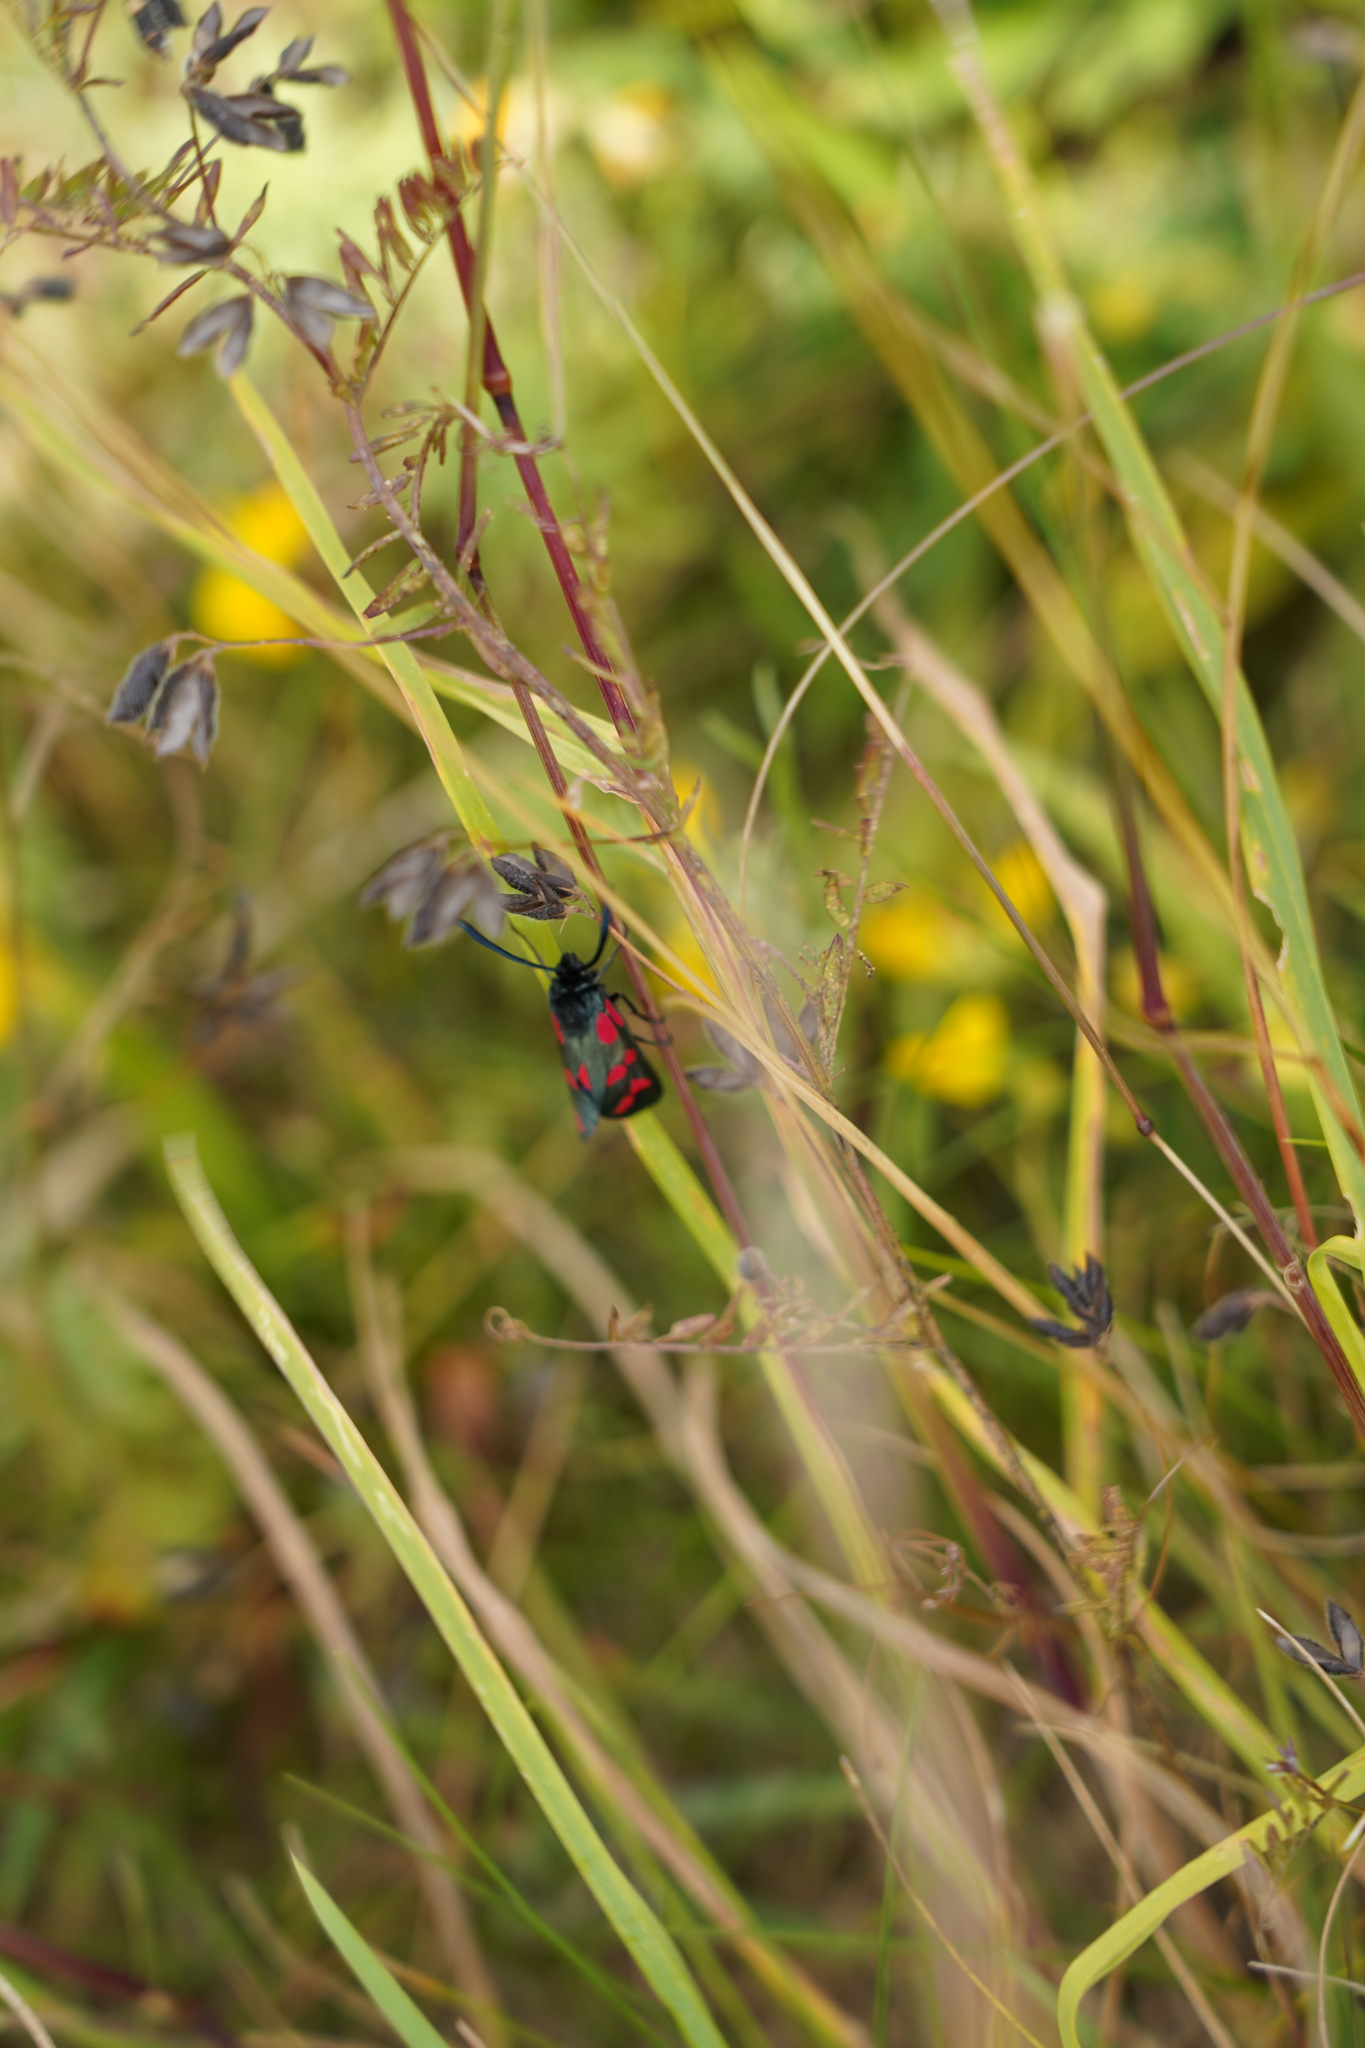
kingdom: Animalia
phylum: Arthropoda
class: Insecta
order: Lepidoptera
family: Zygaenidae
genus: Zygaena
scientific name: Zygaena filipendulae
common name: Six-spot burnet
